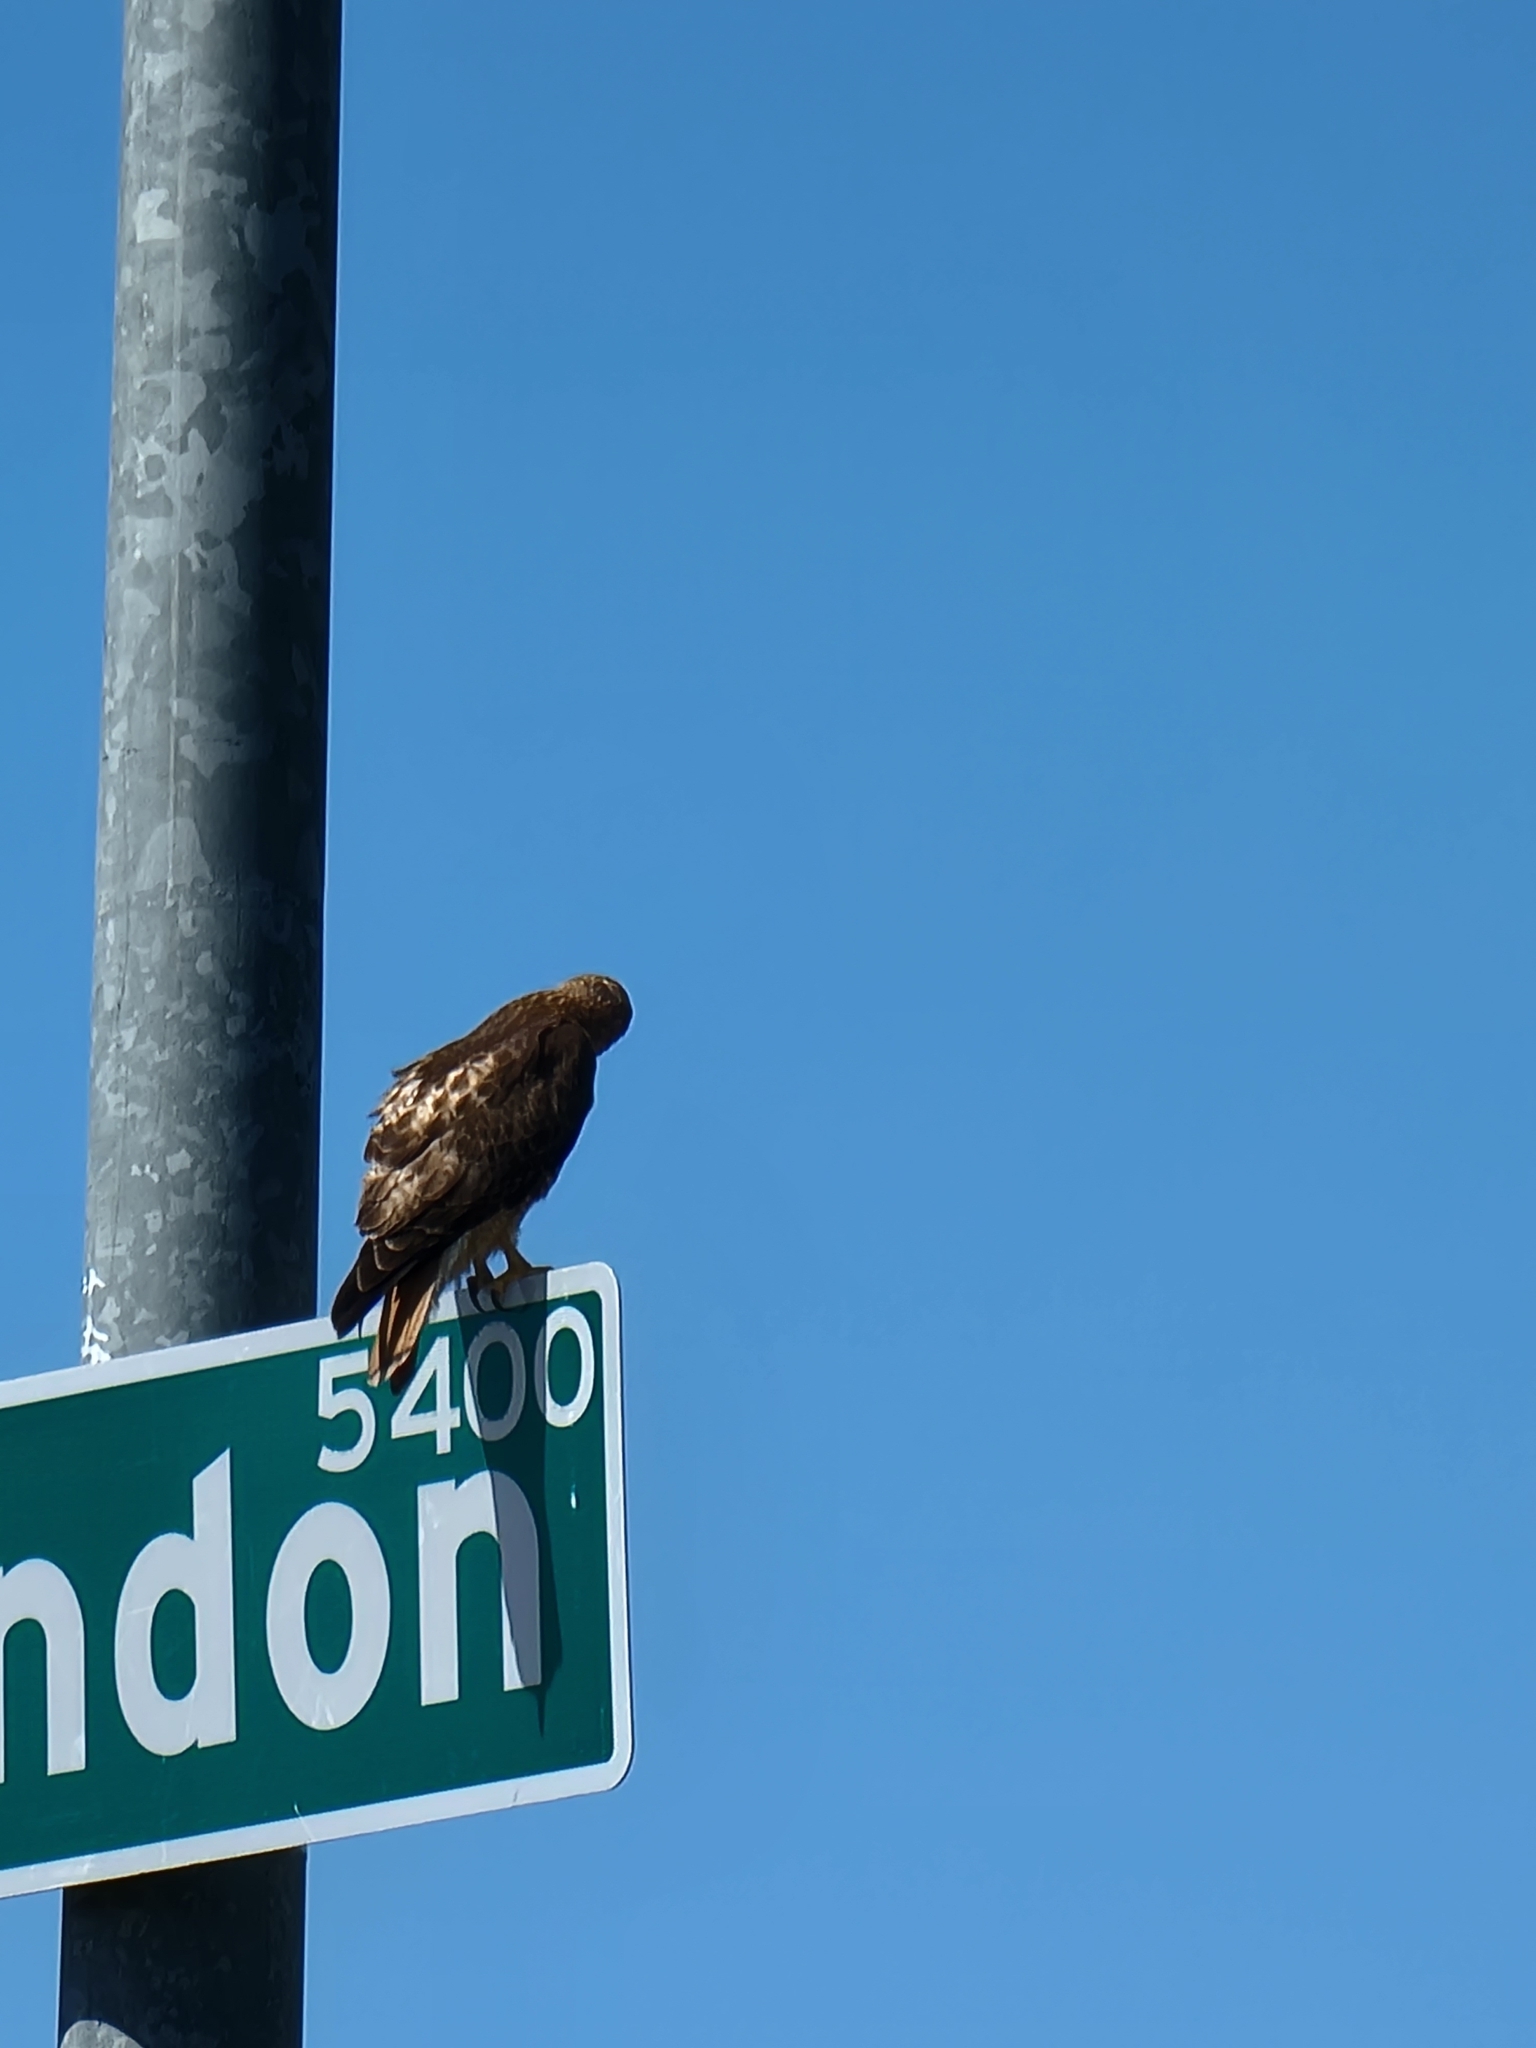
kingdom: Animalia
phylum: Chordata
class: Aves
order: Accipitriformes
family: Accipitridae
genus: Buteo
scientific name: Buteo jamaicensis
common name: Red-tailed hawk
